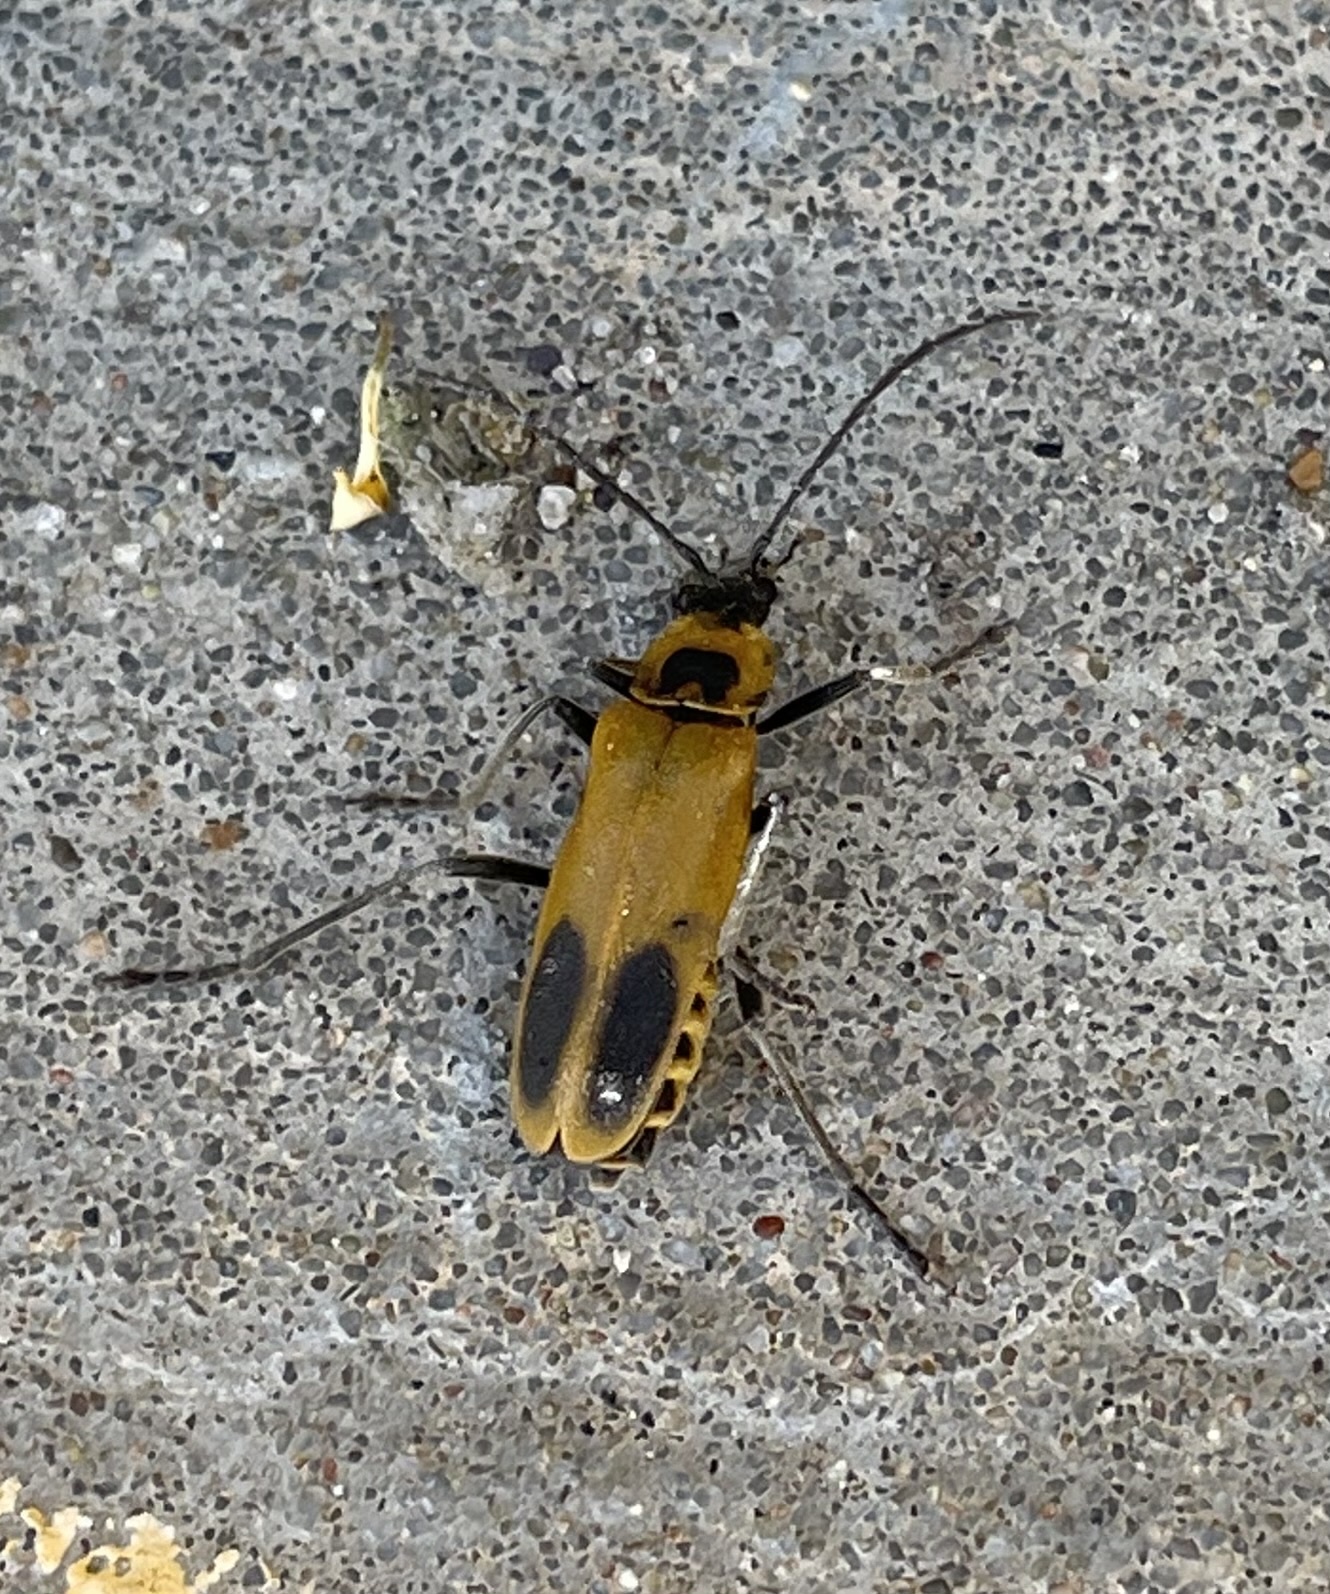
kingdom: Animalia
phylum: Arthropoda
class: Insecta
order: Coleoptera
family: Cantharidae
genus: Chauliognathus
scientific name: Chauliognathus pensylvanicus
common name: Goldenrod soldier beetle
